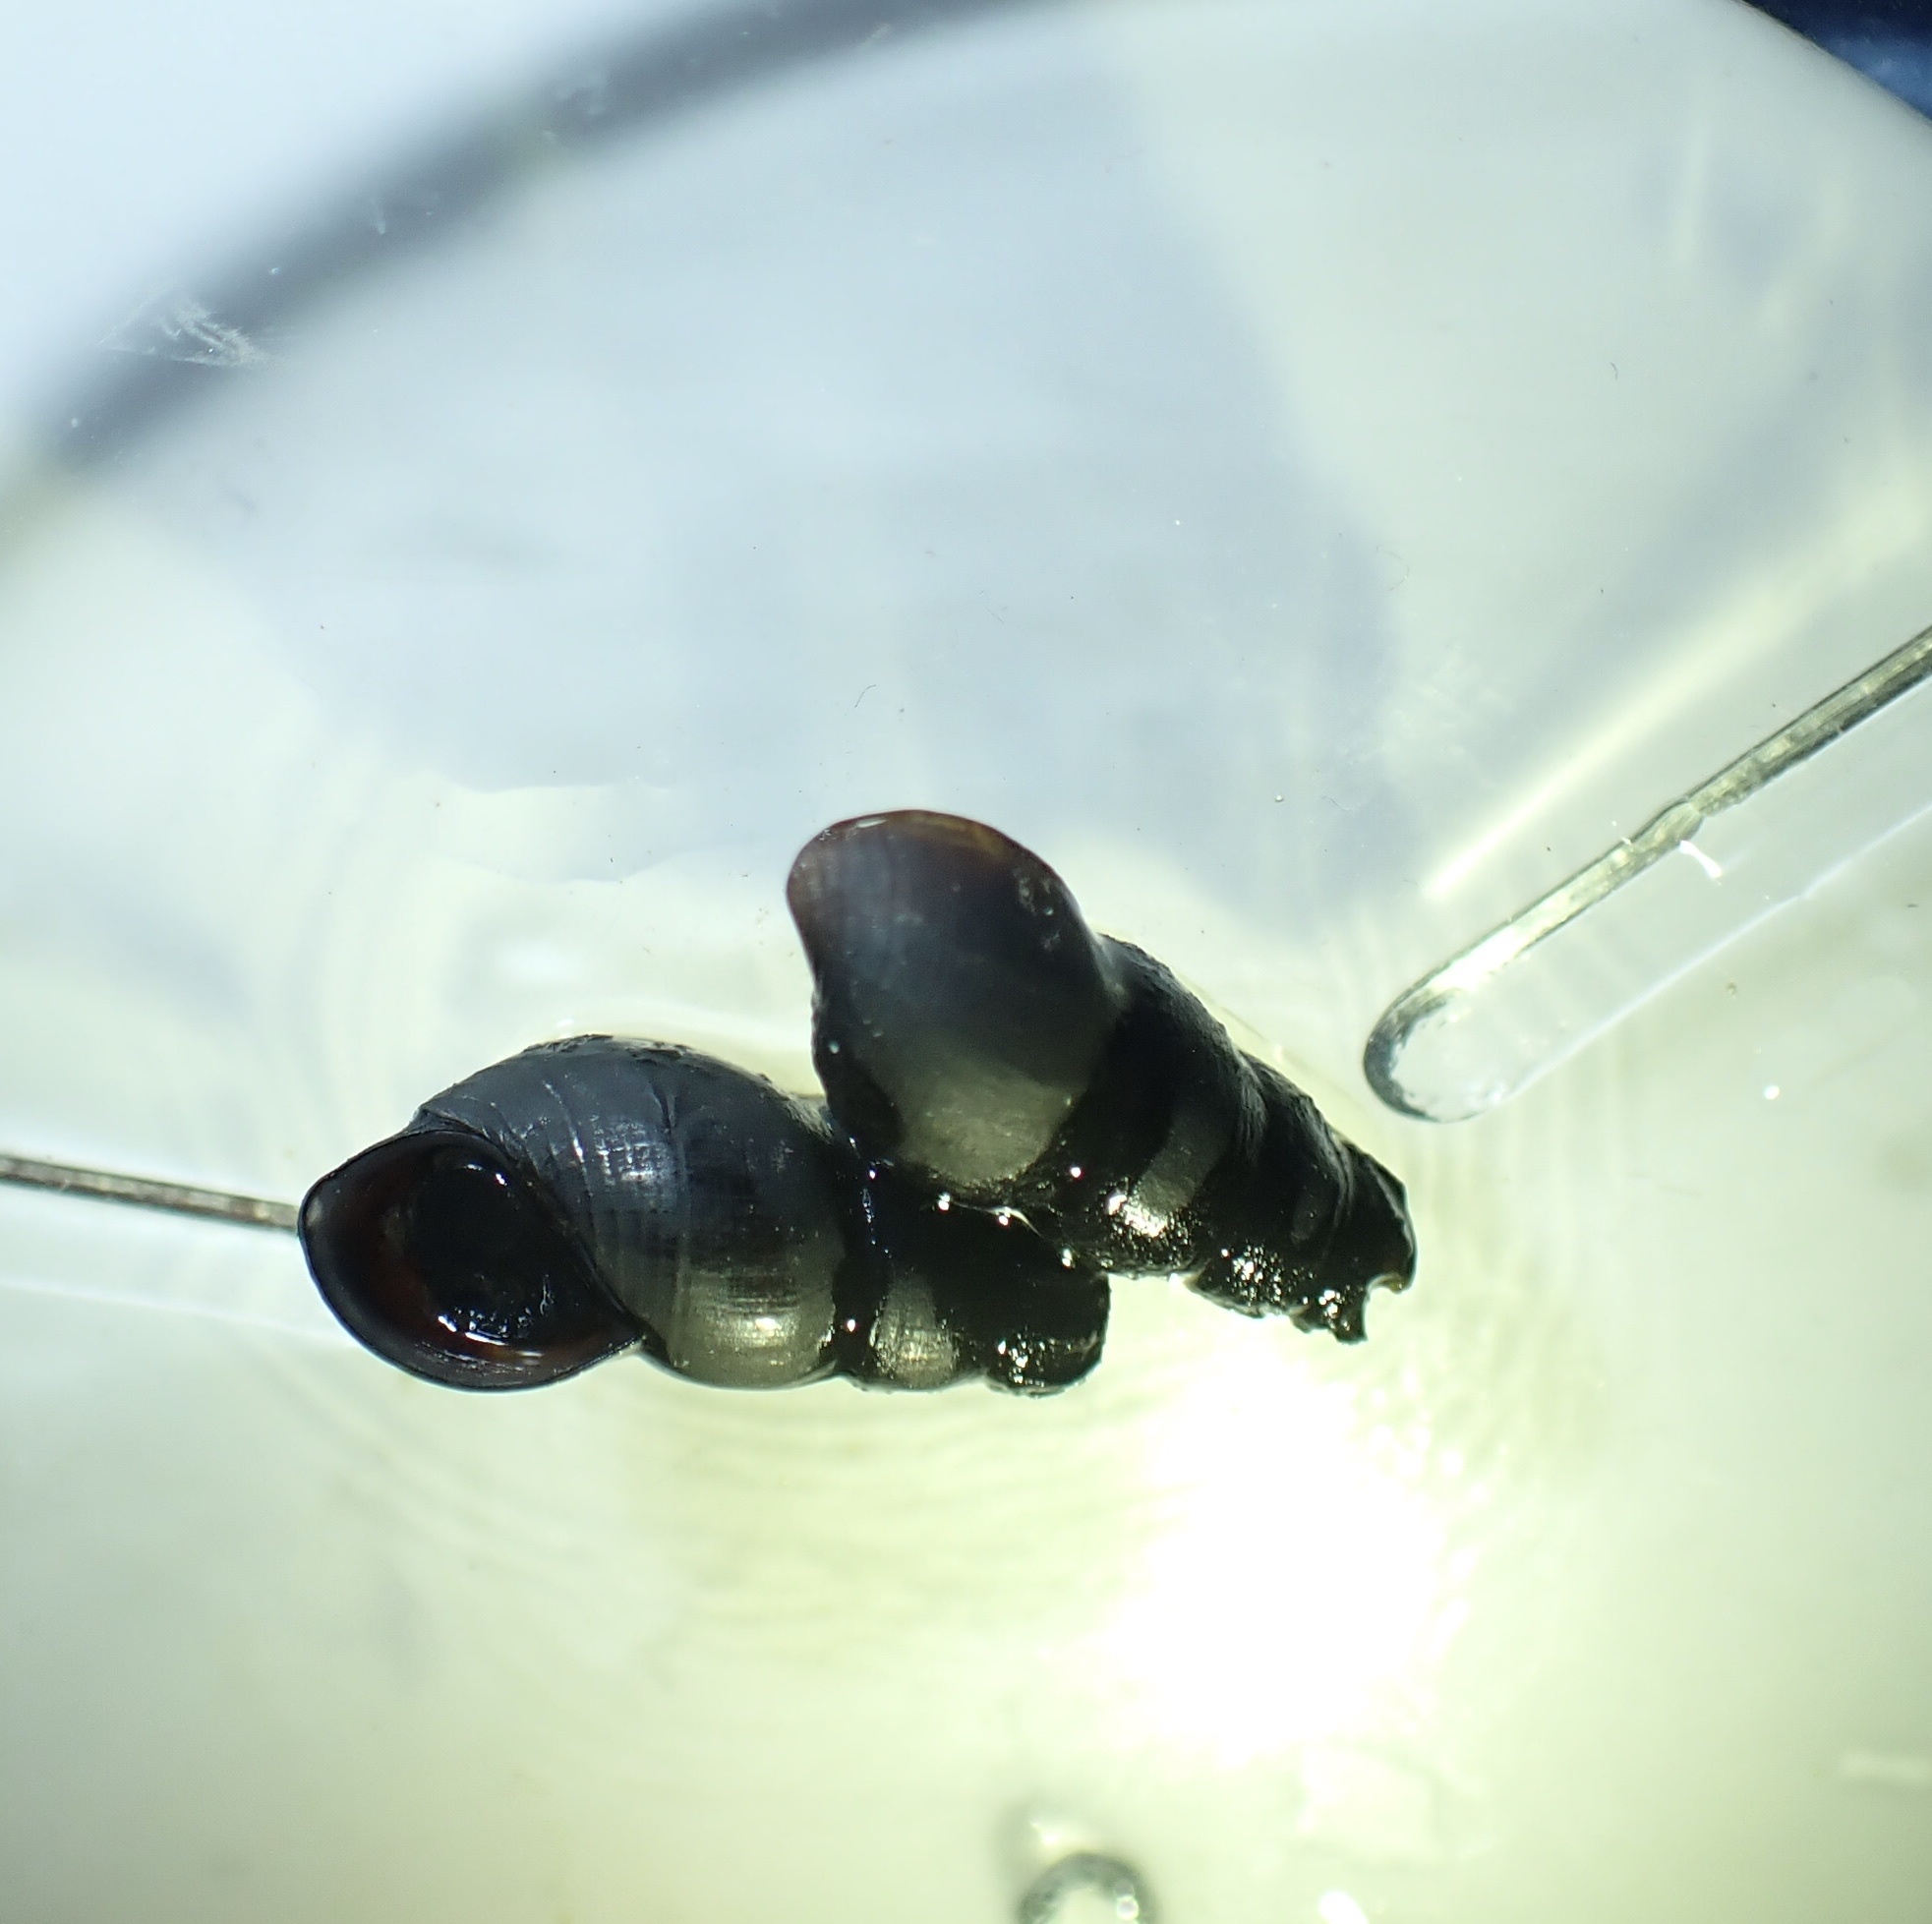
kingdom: Animalia
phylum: Mollusca
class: Gastropoda
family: Semisulcospiridae
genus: Juga
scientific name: Juga plicifera
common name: Pleated juga
